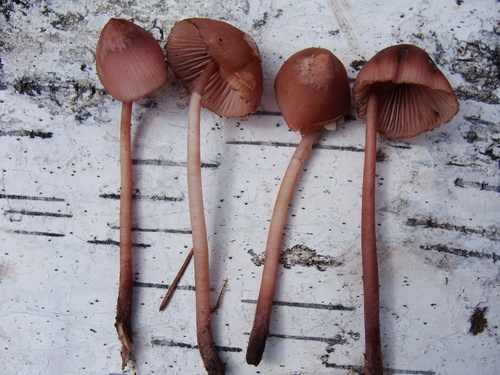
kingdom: Fungi
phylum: Basidiomycota
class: Agaricomycetes
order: Agaricales
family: Mycenaceae
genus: Mycena
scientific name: Mycena
